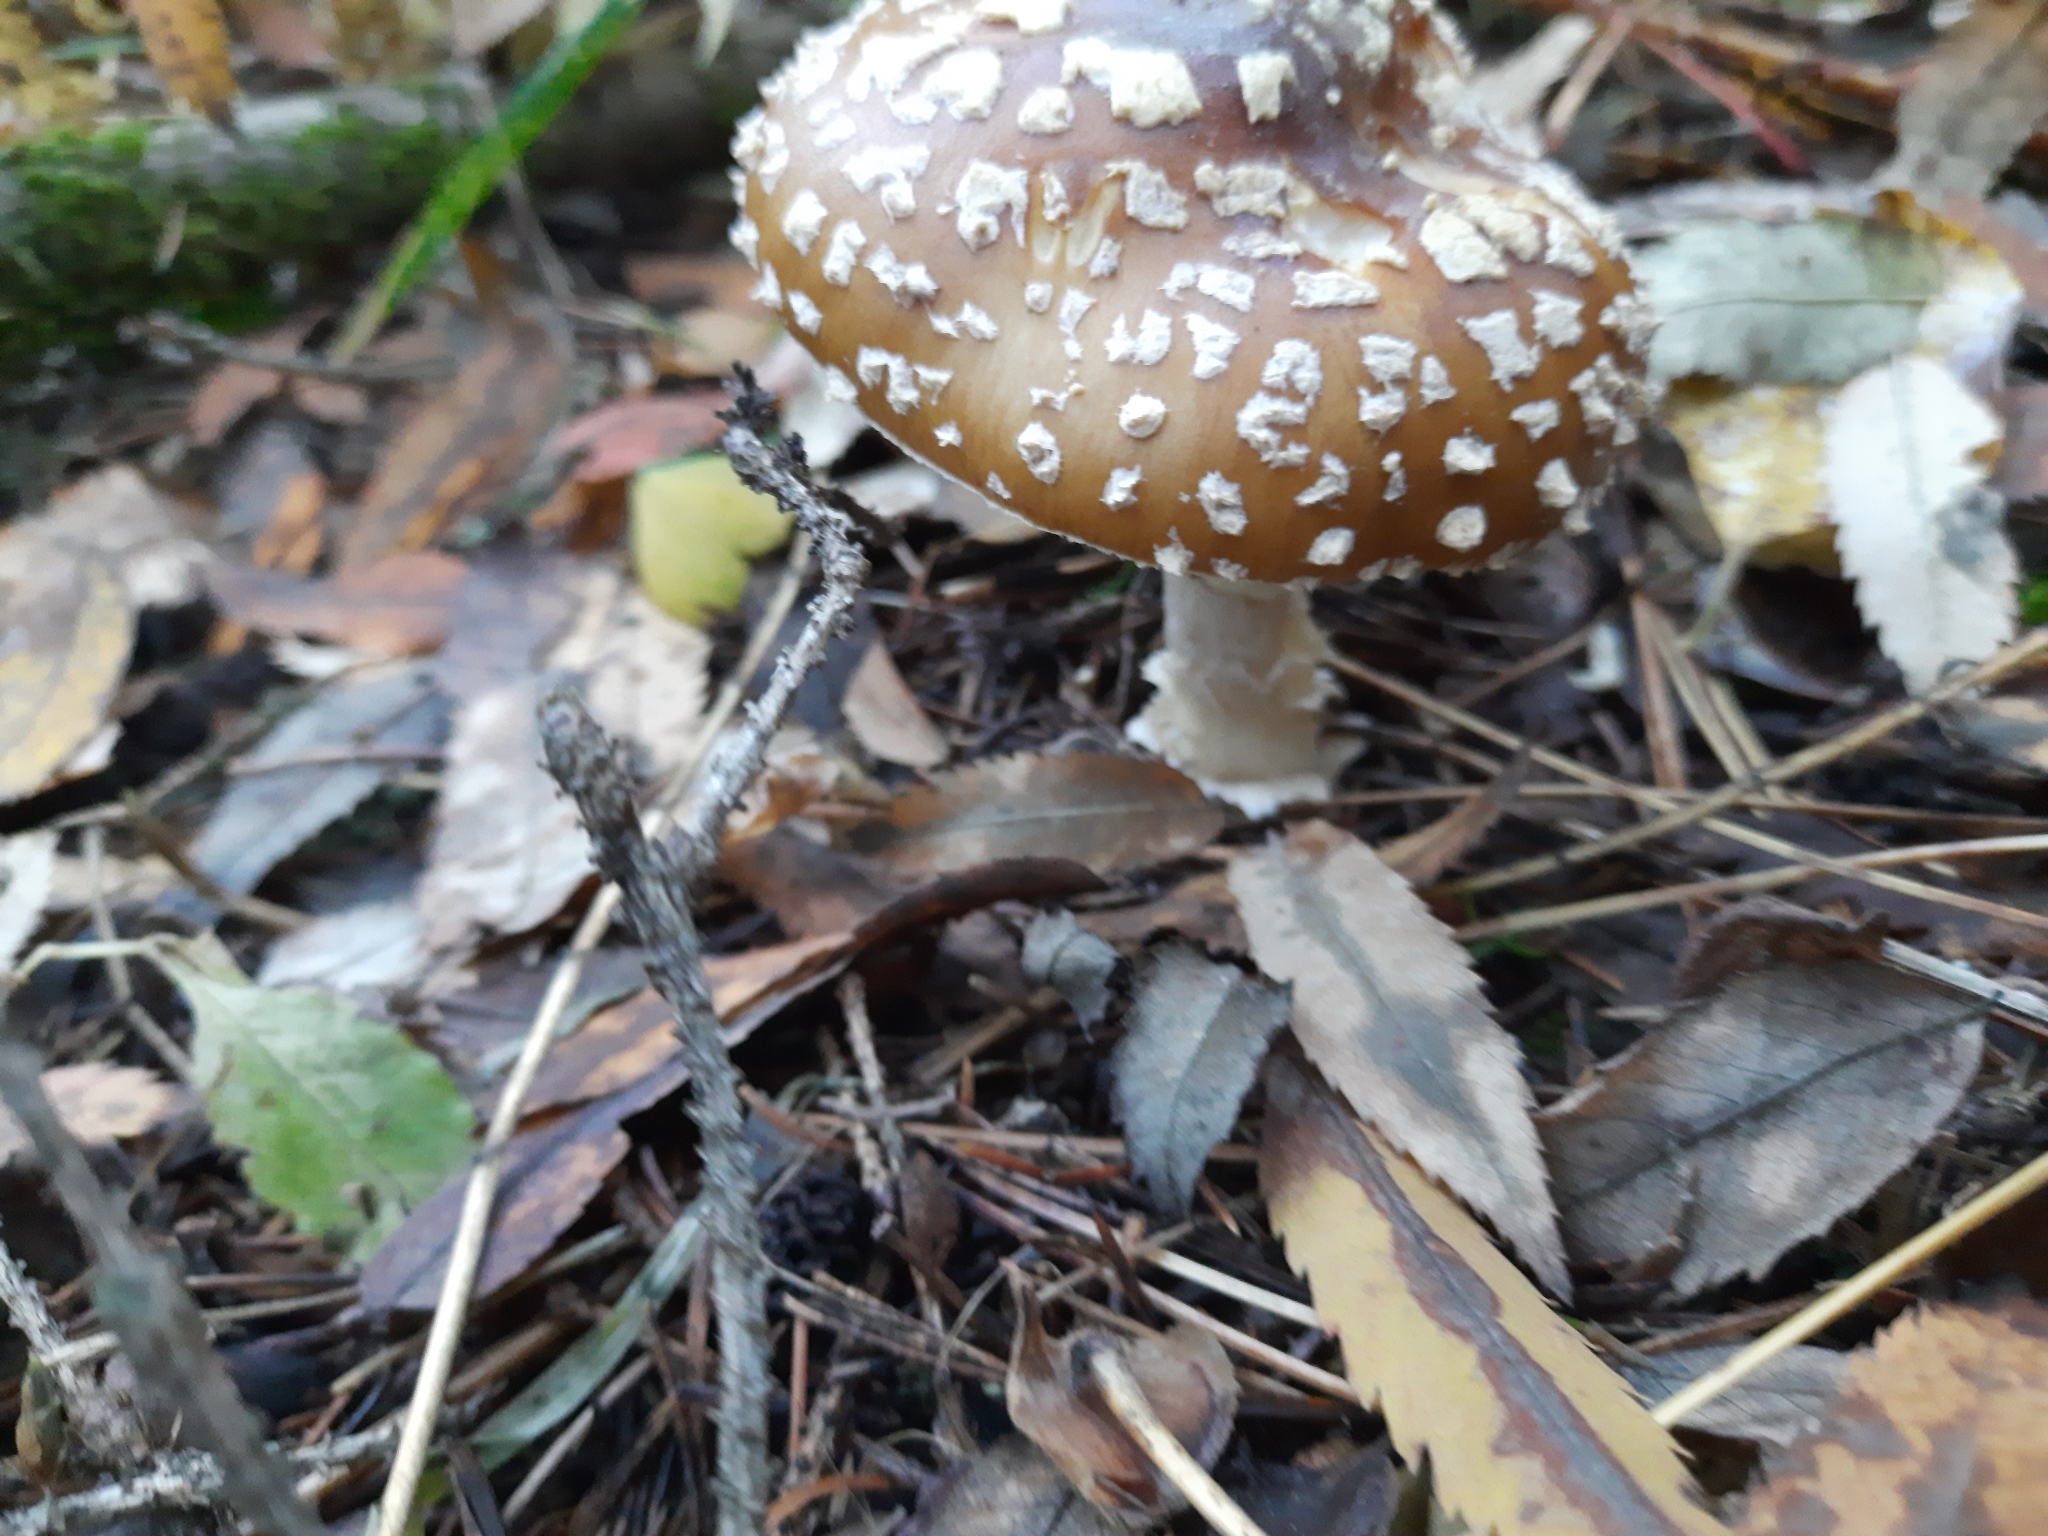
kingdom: Fungi
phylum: Basidiomycota
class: Agaricomycetes
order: Agaricales
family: Amanitaceae
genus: Amanita
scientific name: Amanita regalis
